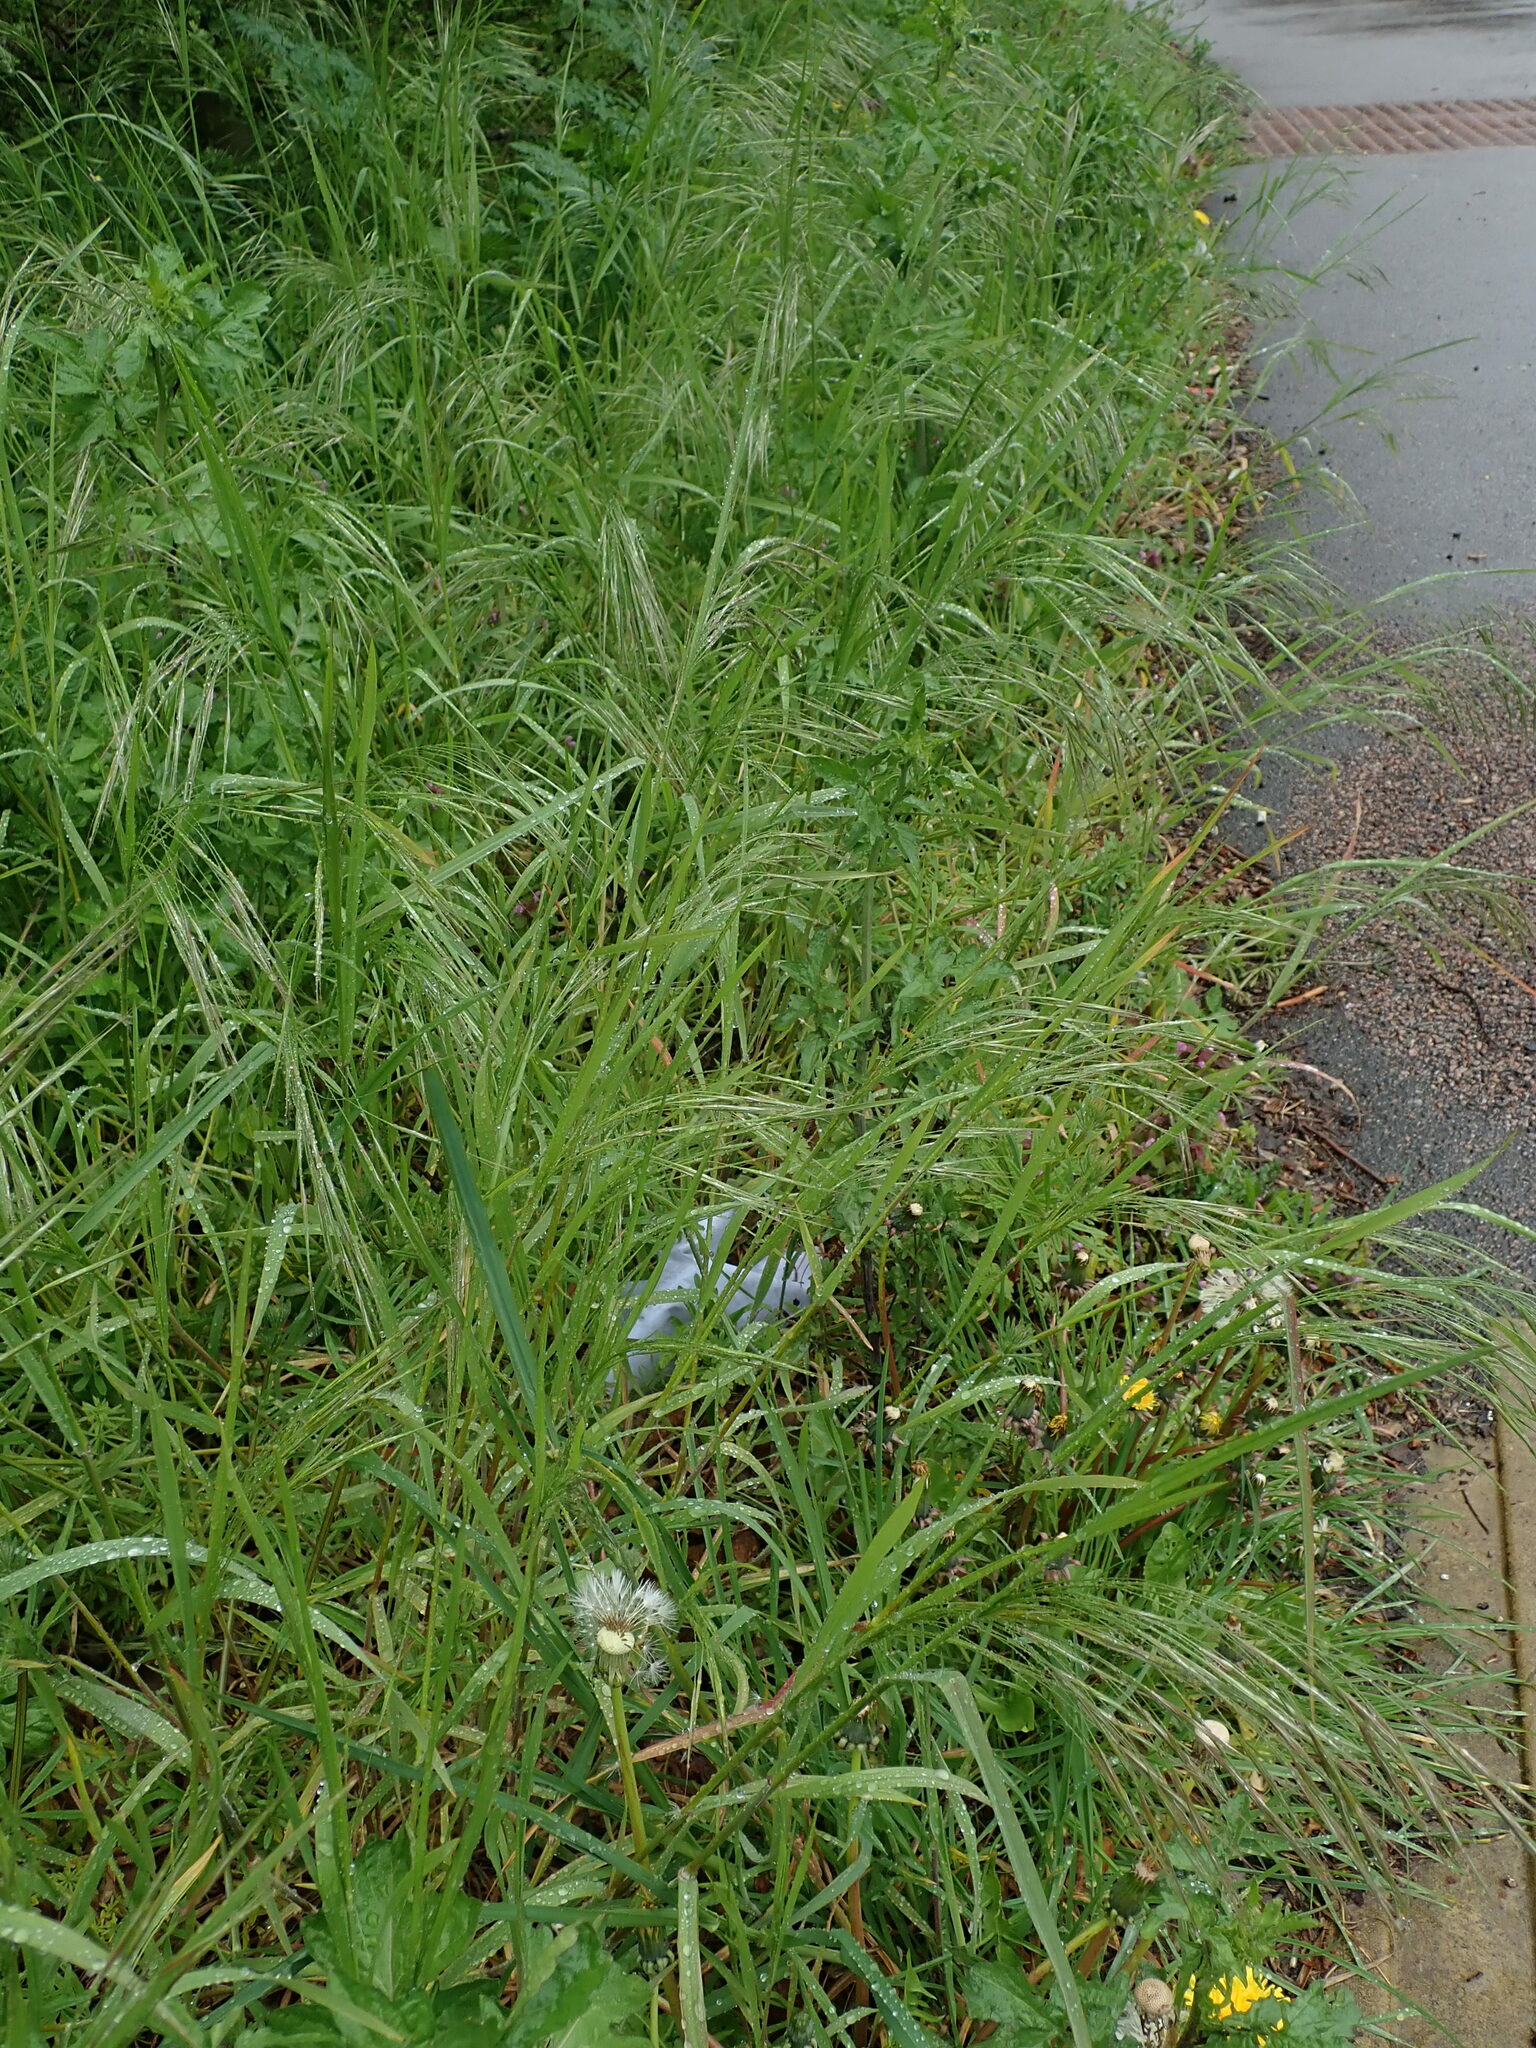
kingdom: Plantae
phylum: Tracheophyta
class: Liliopsida
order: Poales
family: Poaceae
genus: Bromus
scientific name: Bromus sterilis
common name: Poverty brome
